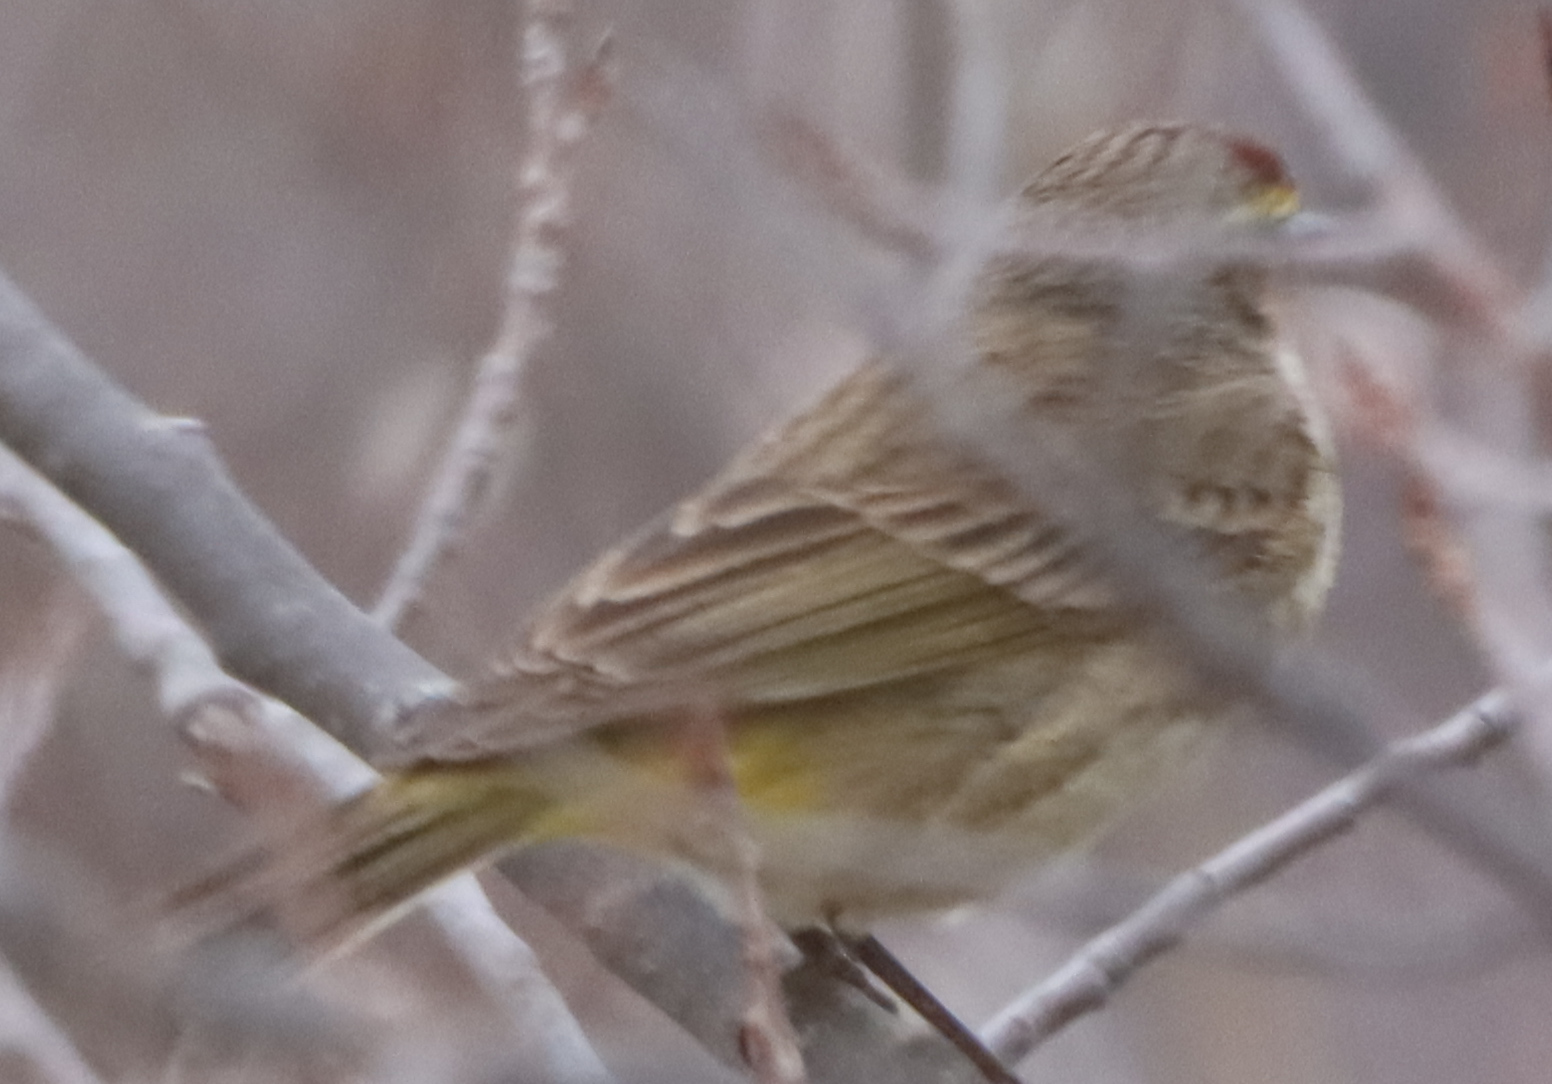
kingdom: Animalia
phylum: Chordata
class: Aves
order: Passeriformes
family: Parulidae
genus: Setophaga
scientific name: Setophaga palmarum
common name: Palm warbler
